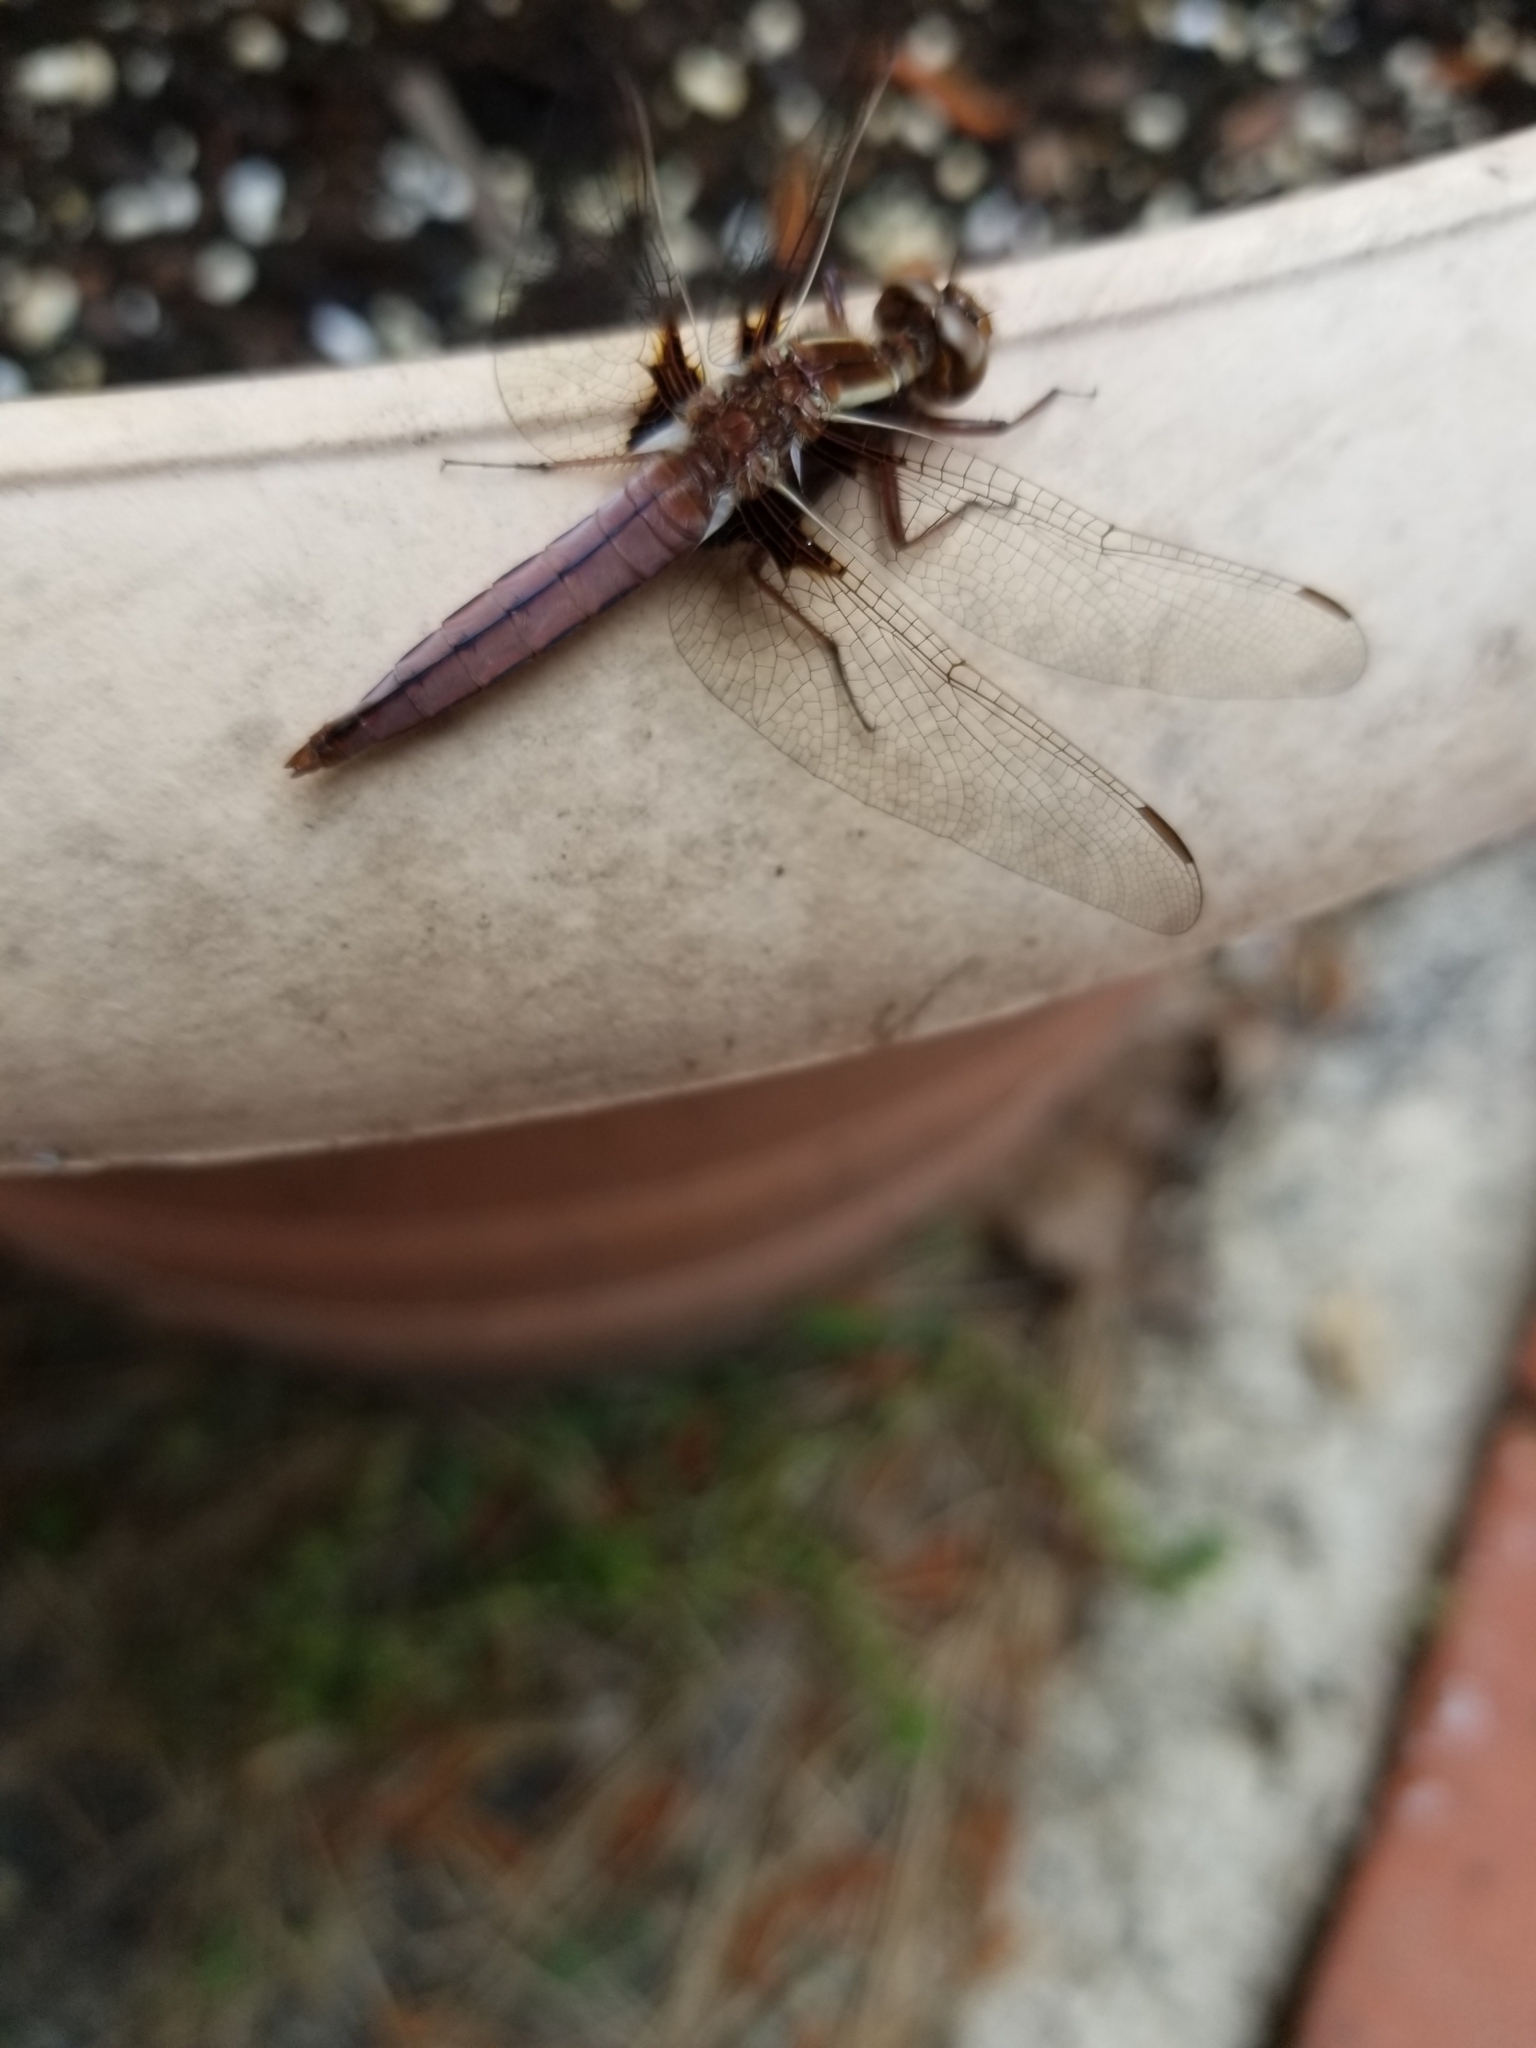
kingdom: Animalia
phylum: Arthropoda
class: Insecta
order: Odonata
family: Libellulidae
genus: Ladona
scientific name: Ladona exusta
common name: Libellule embrasée
